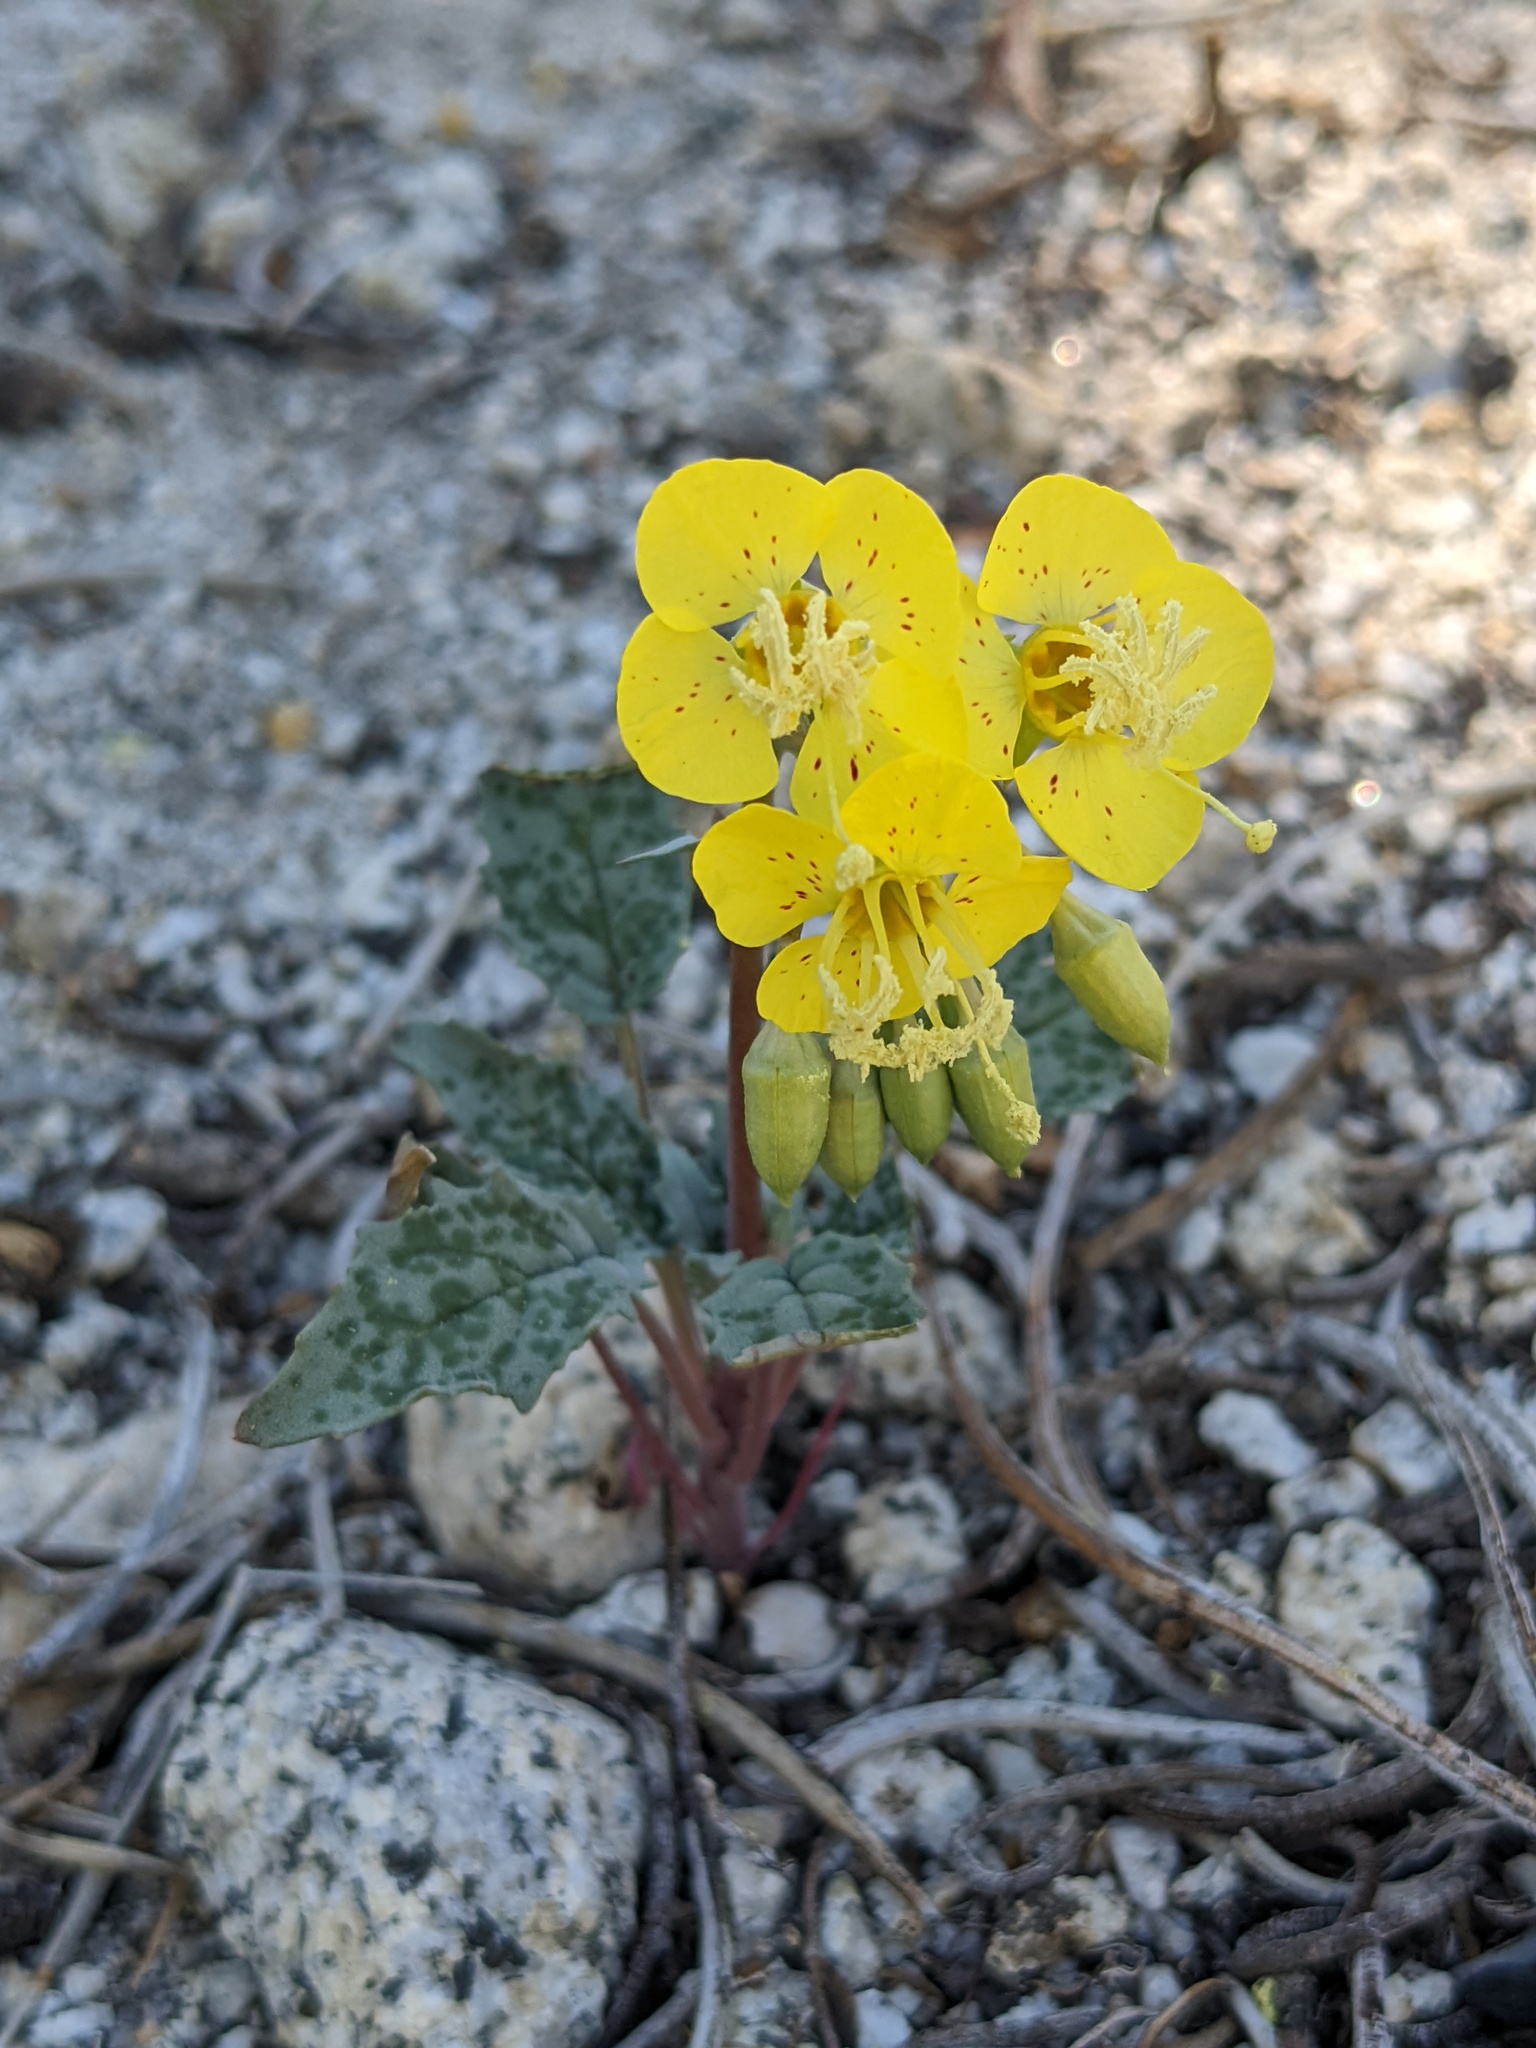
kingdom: Plantae
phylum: Tracheophyta
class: Magnoliopsida
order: Myrtales
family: Onagraceae
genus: Chylismia
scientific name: Chylismia claviformis
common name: Browneyes
